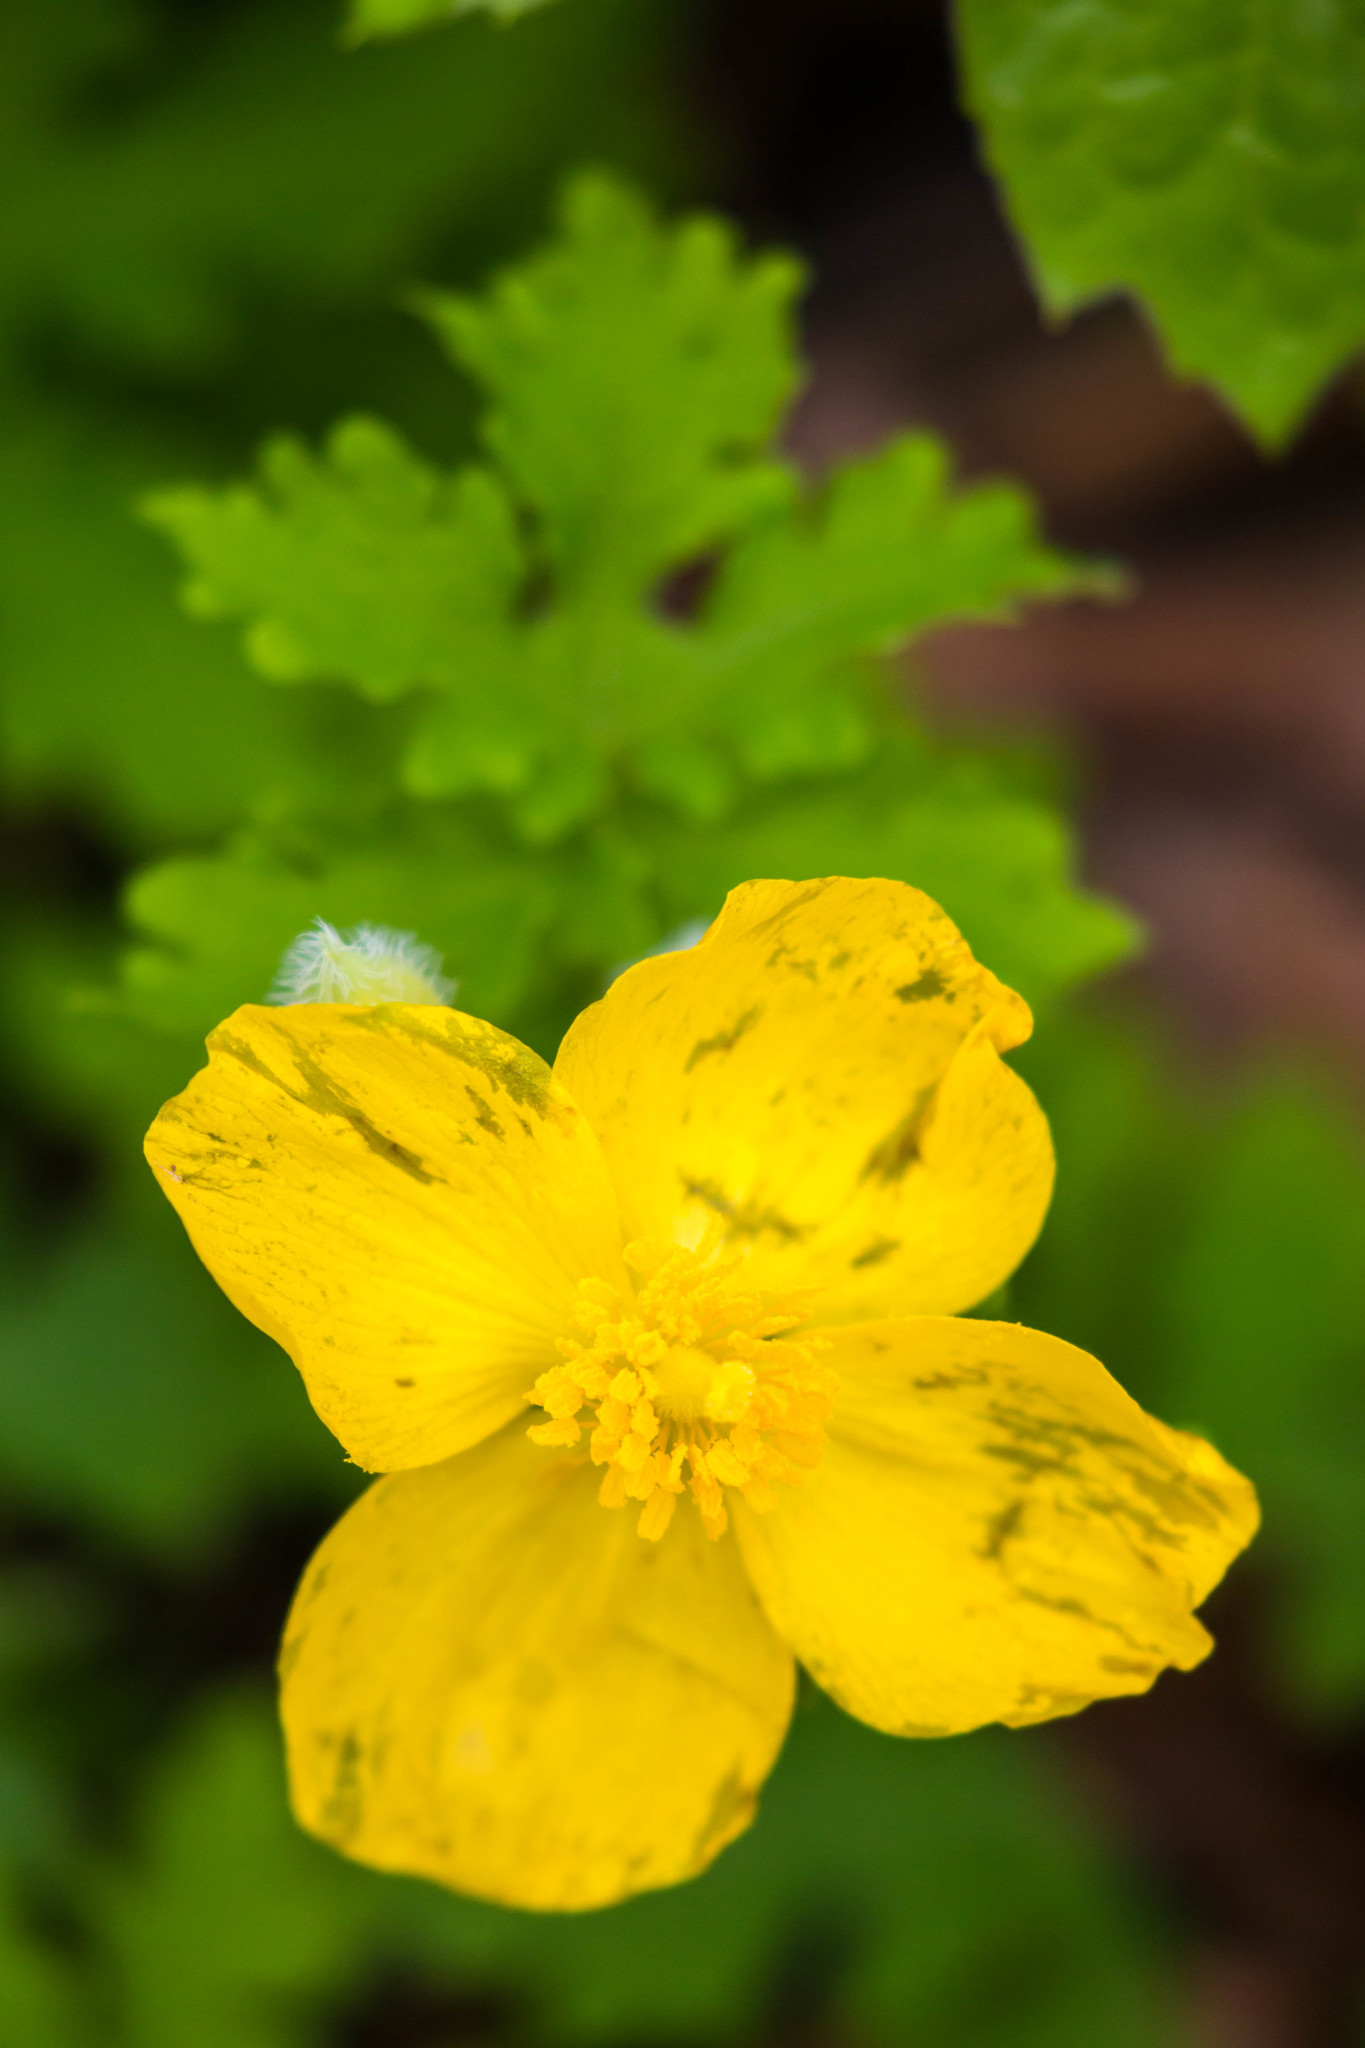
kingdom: Plantae
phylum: Tracheophyta
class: Magnoliopsida
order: Ranunculales
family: Papaveraceae
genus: Stylophorum
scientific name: Stylophorum diphyllum
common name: Celandine poppy
